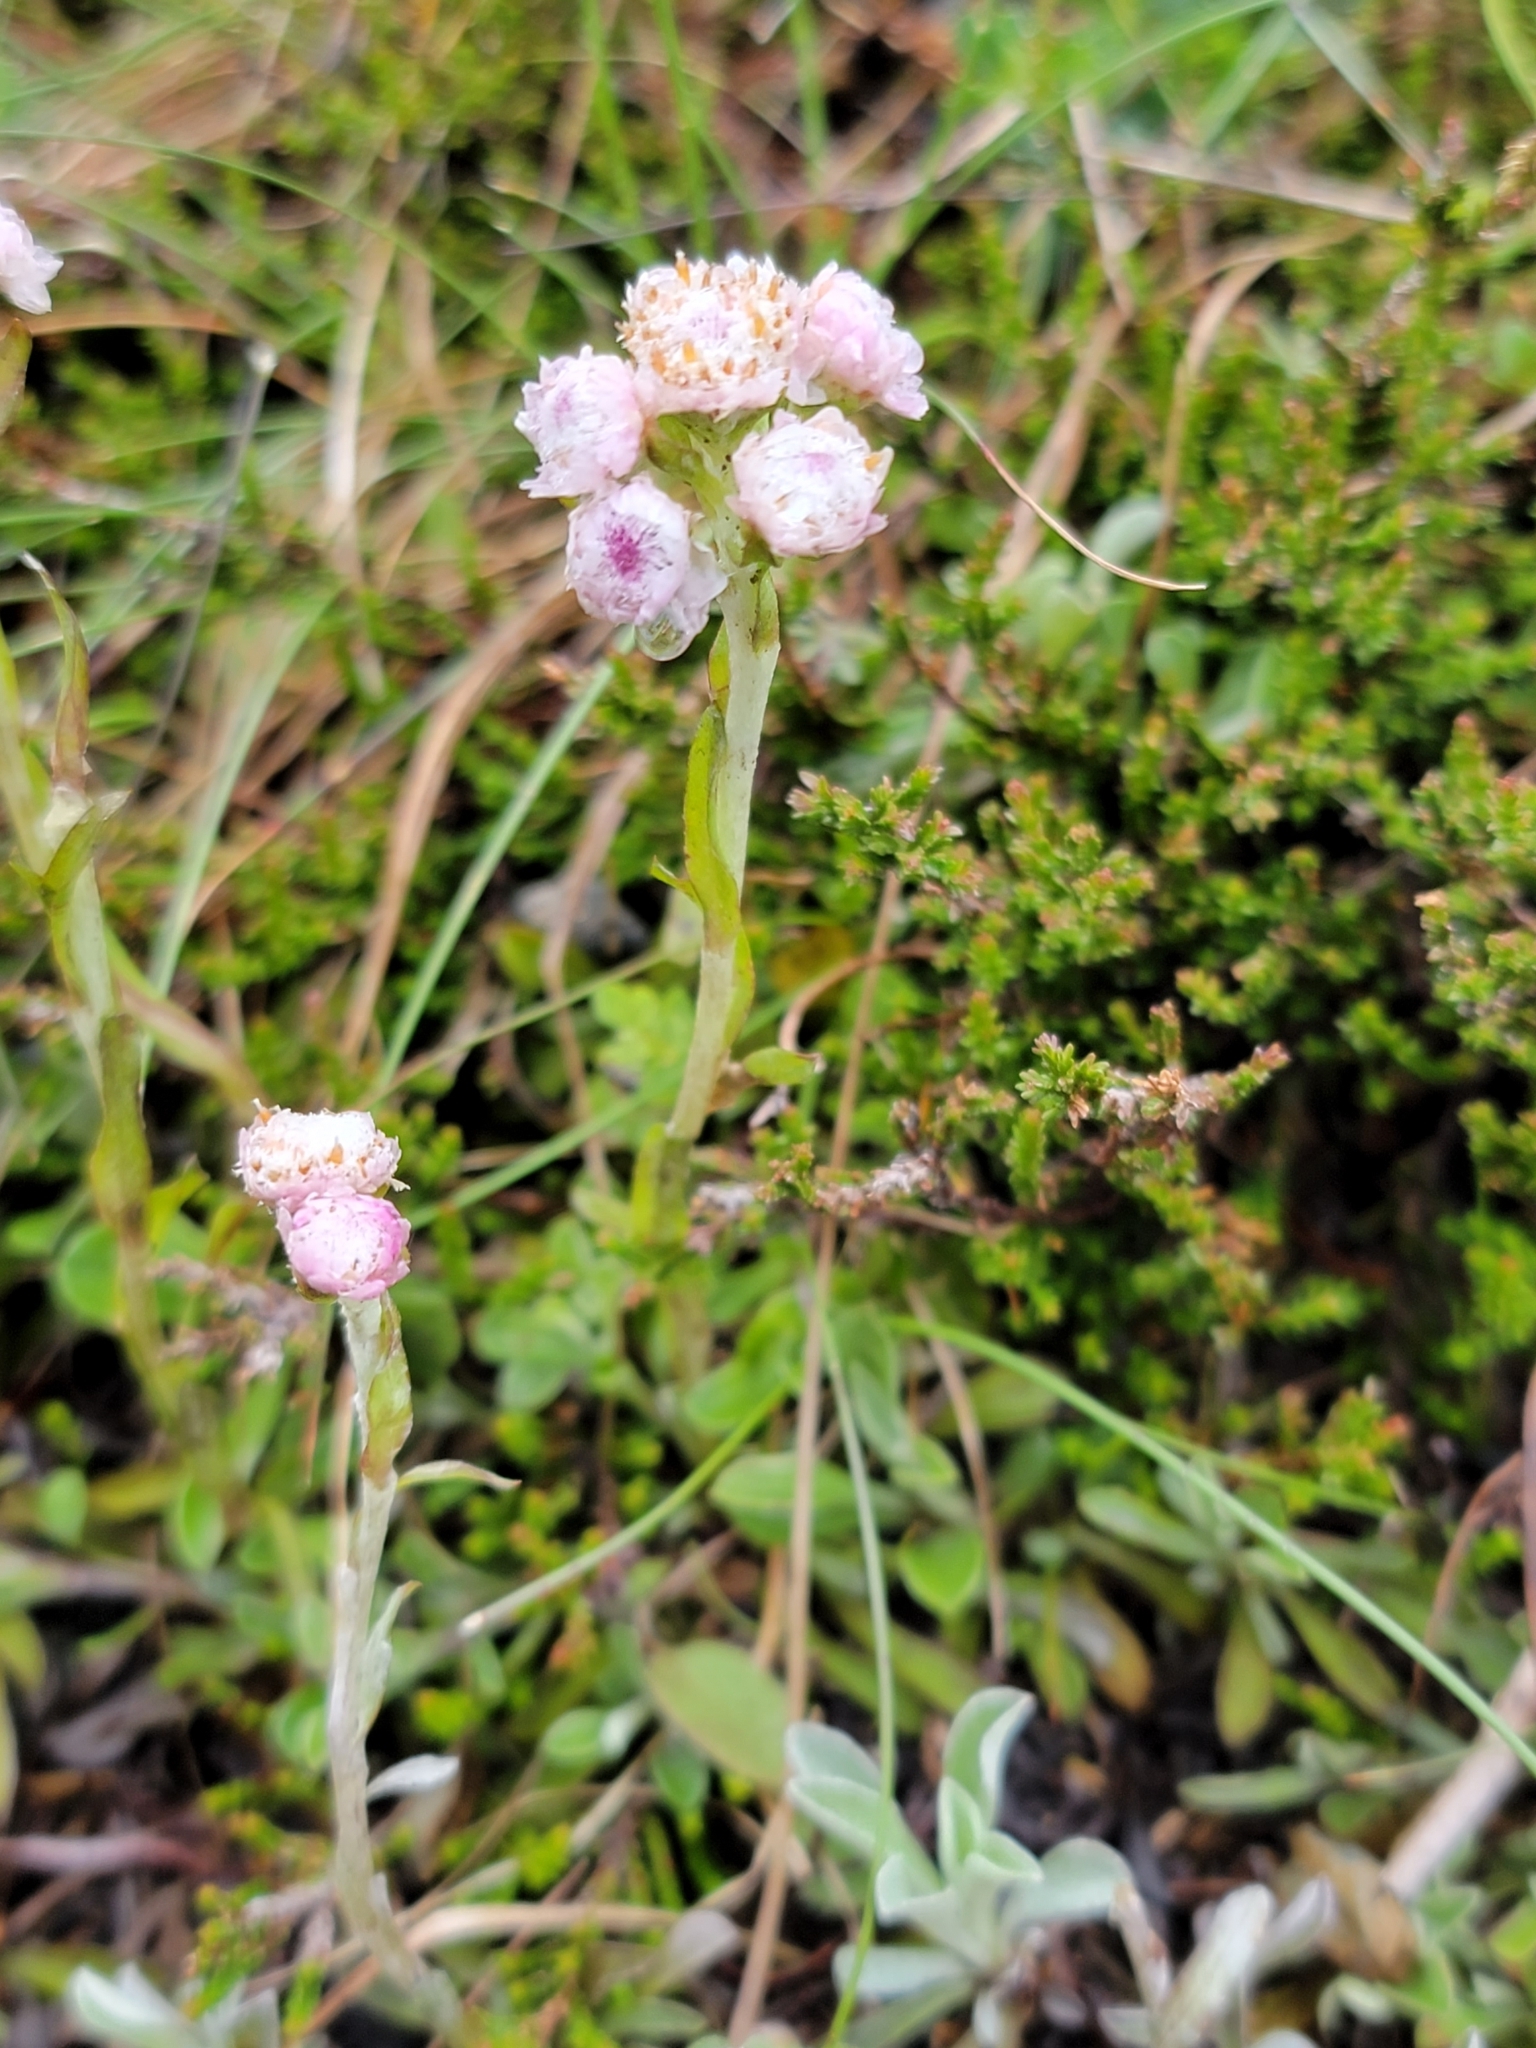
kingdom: Plantae
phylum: Tracheophyta
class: Magnoliopsida
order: Asterales
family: Asteraceae
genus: Antennaria
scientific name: Antennaria dioica
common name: Mountain everlasting
